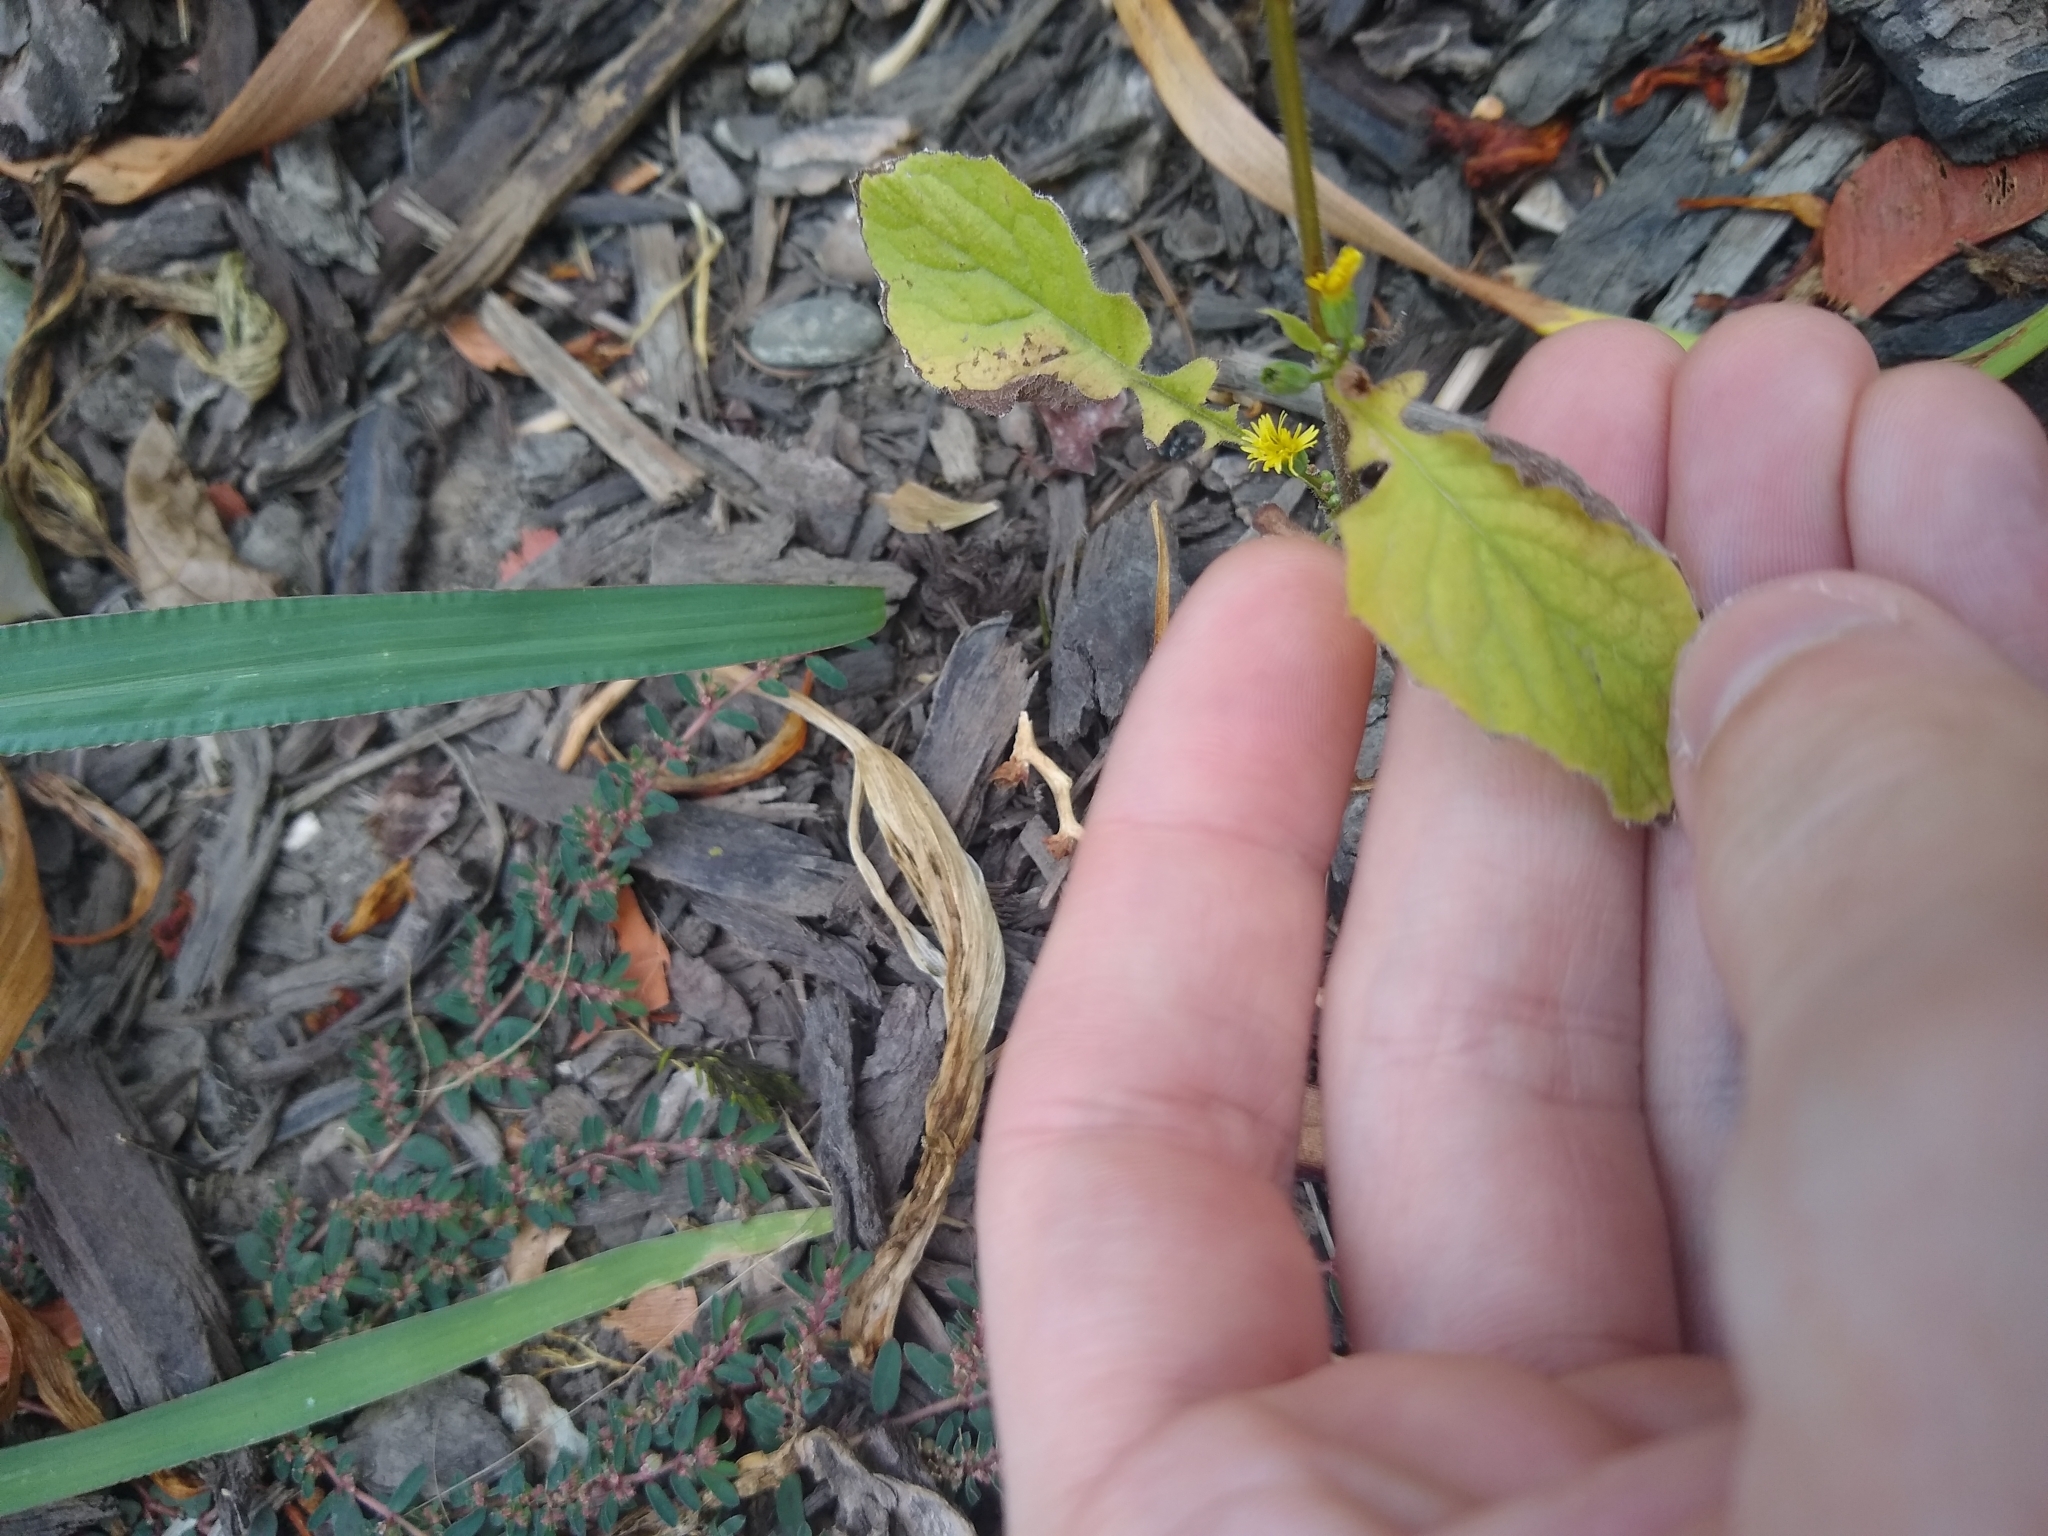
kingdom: Plantae
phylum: Tracheophyta
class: Magnoliopsida
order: Asterales
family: Asteraceae
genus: Lapsana
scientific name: Lapsana communis
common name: Nipplewort
